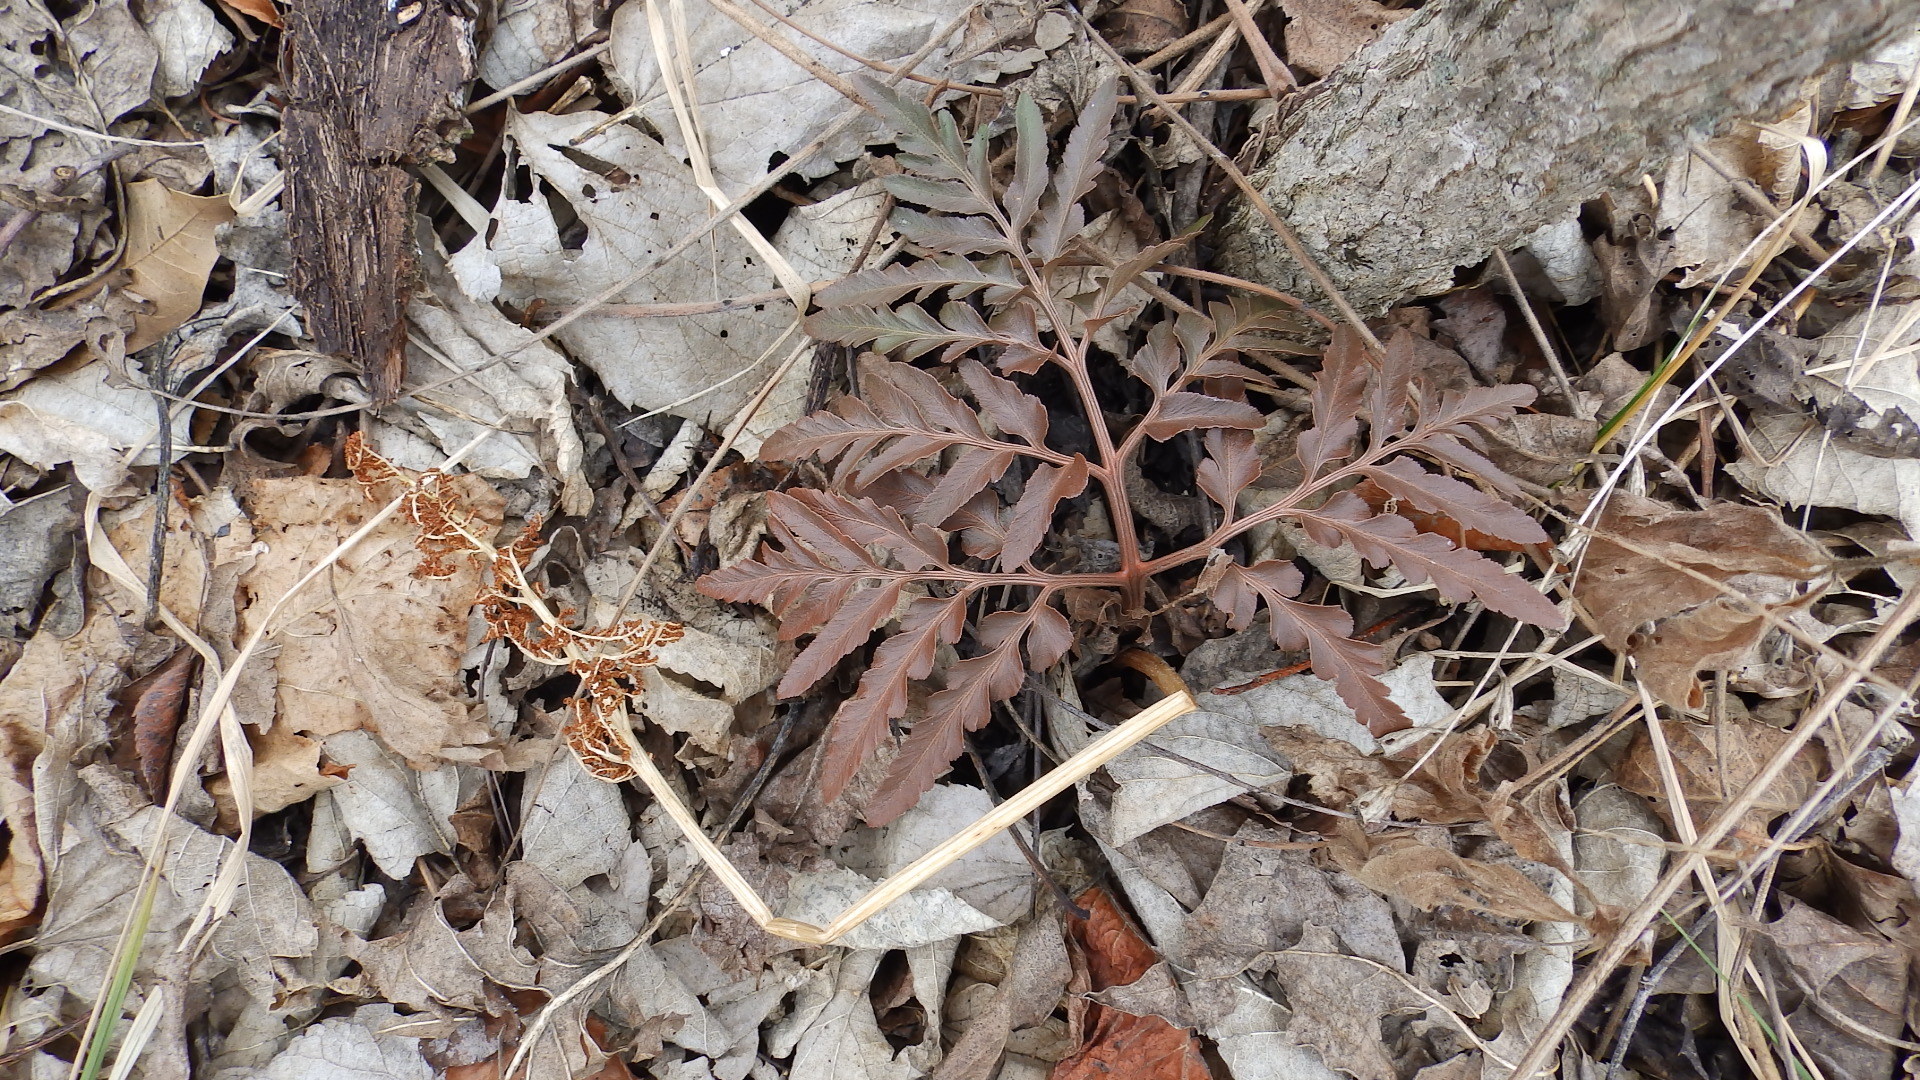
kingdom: Plantae
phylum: Tracheophyta
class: Polypodiopsida
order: Ophioglossales
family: Ophioglossaceae
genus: Sceptridium
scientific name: Sceptridium dissectum
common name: Cut-leaved grapefern
